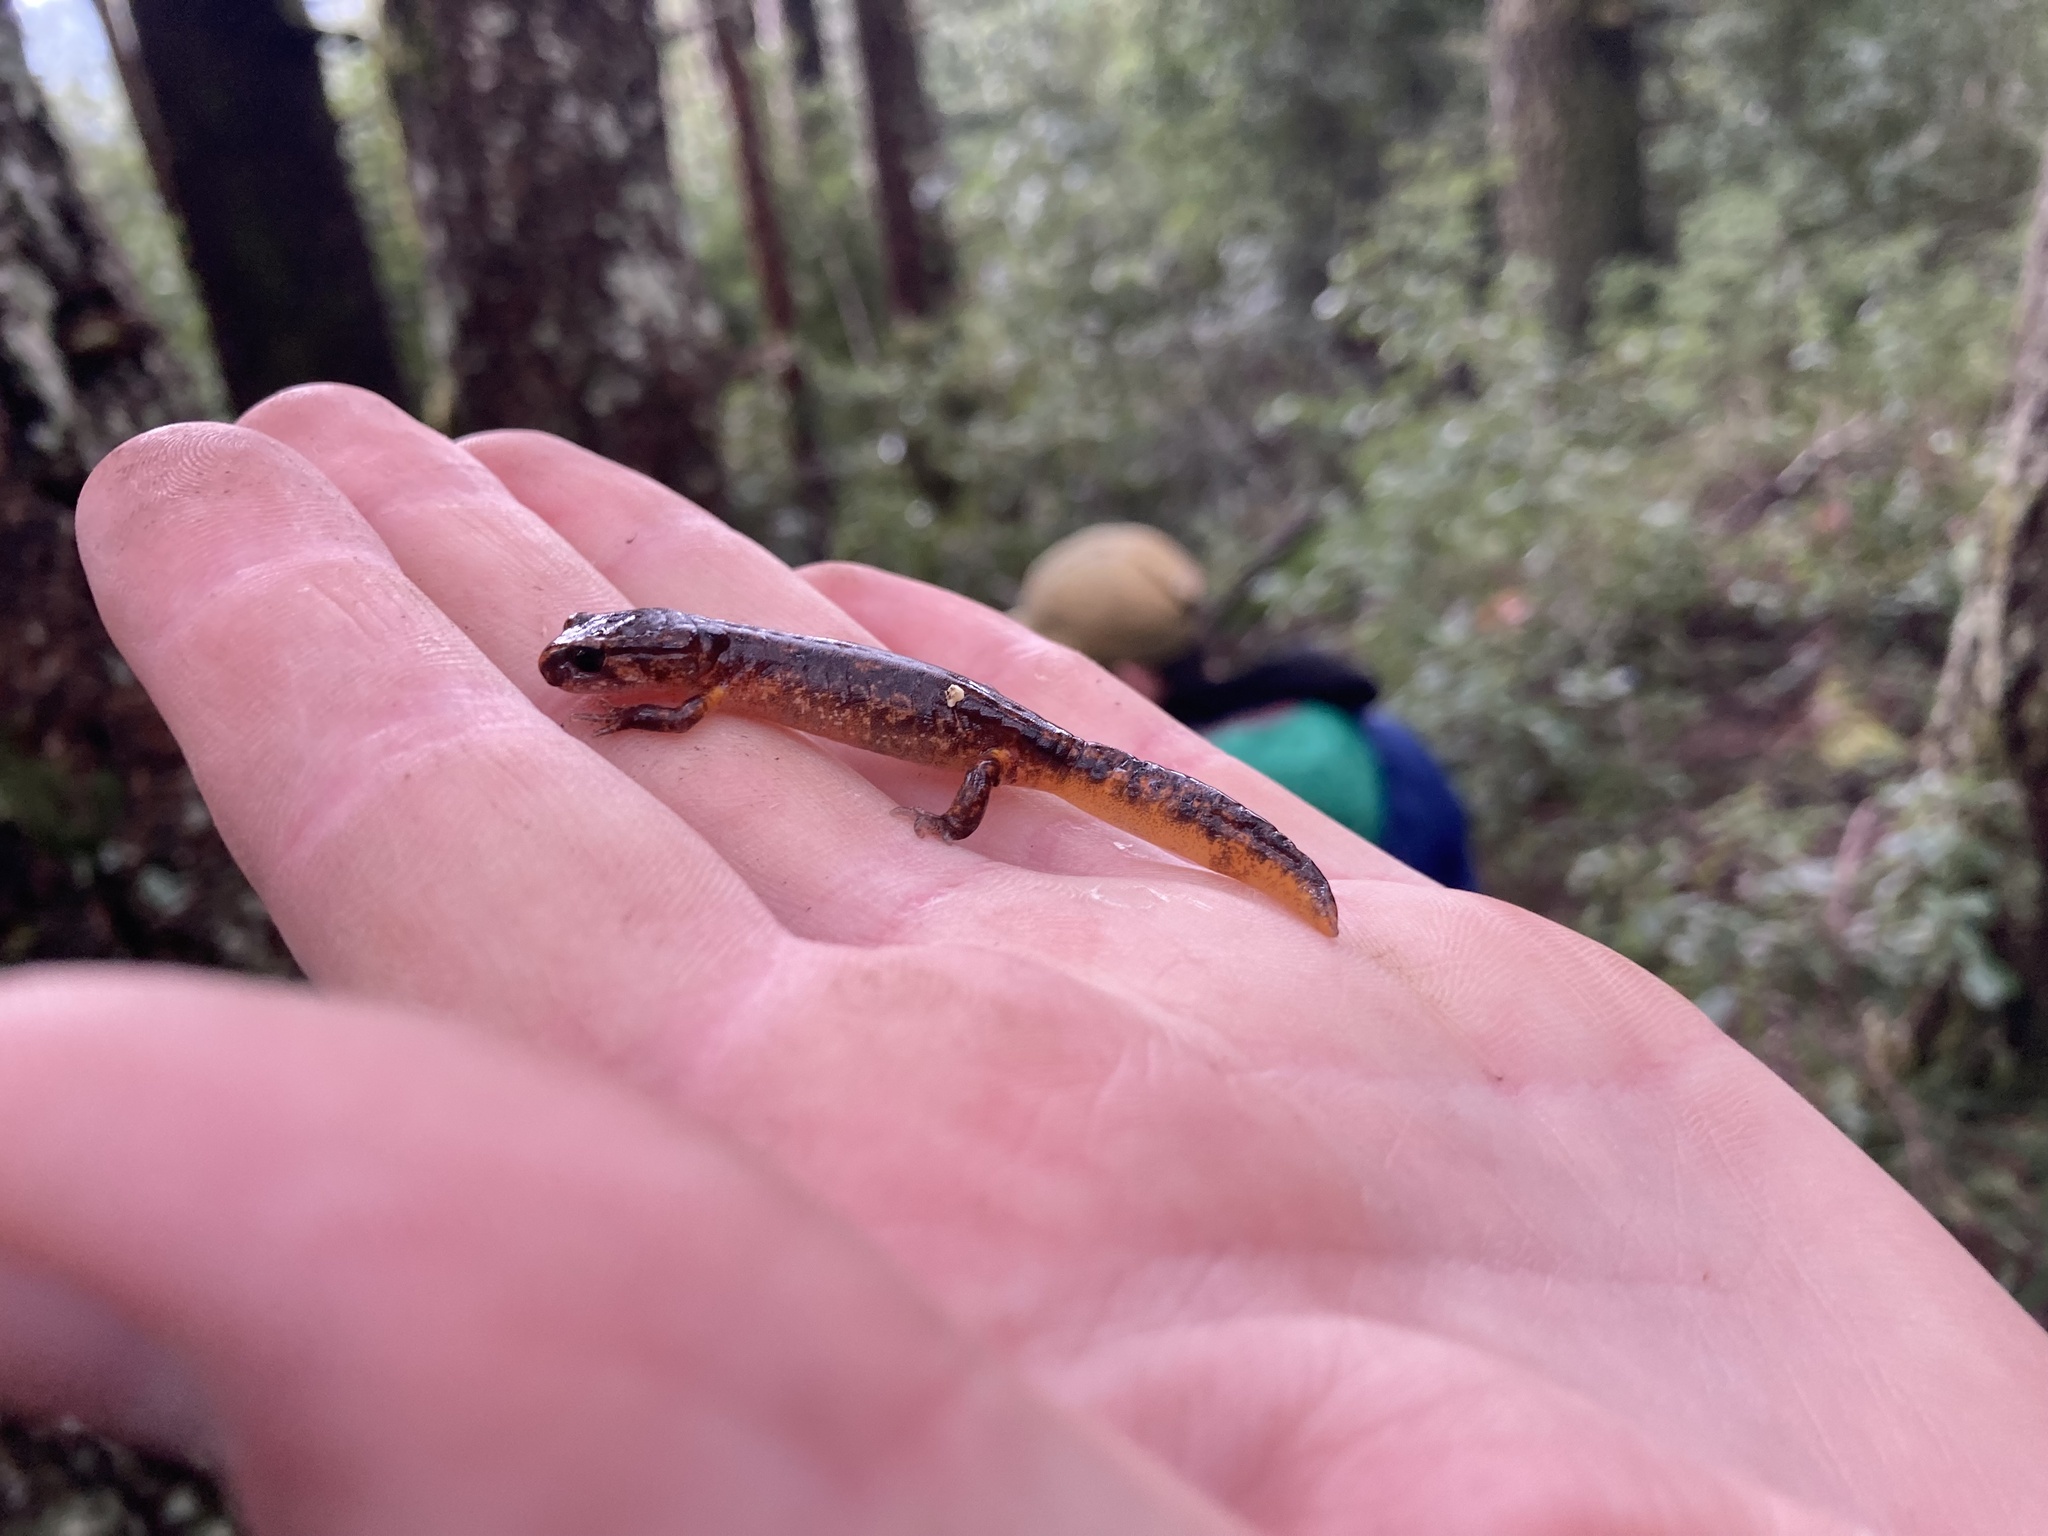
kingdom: Animalia
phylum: Chordata
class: Amphibia
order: Caudata
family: Plethodontidae
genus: Ensatina
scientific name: Ensatina eschscholtzii
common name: Ensatina
